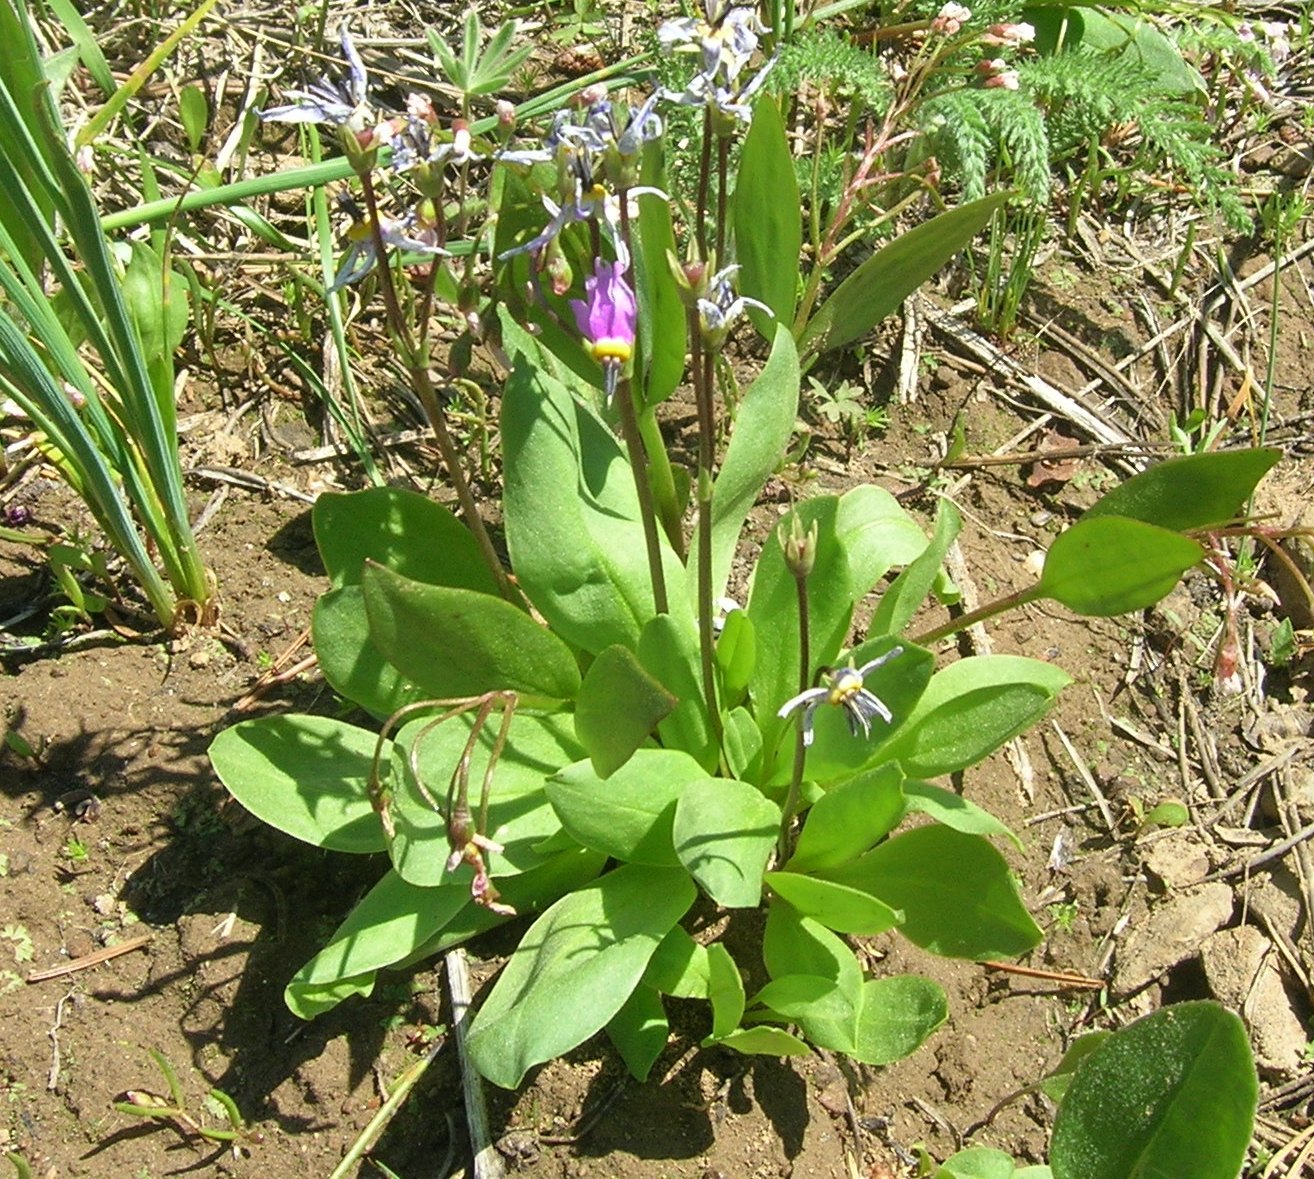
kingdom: Plantae
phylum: Tracheophyta
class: Magnoliopsida
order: Ericales
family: Primulaceae
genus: Dodecatheon
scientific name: Dodecatheon pulchellum
